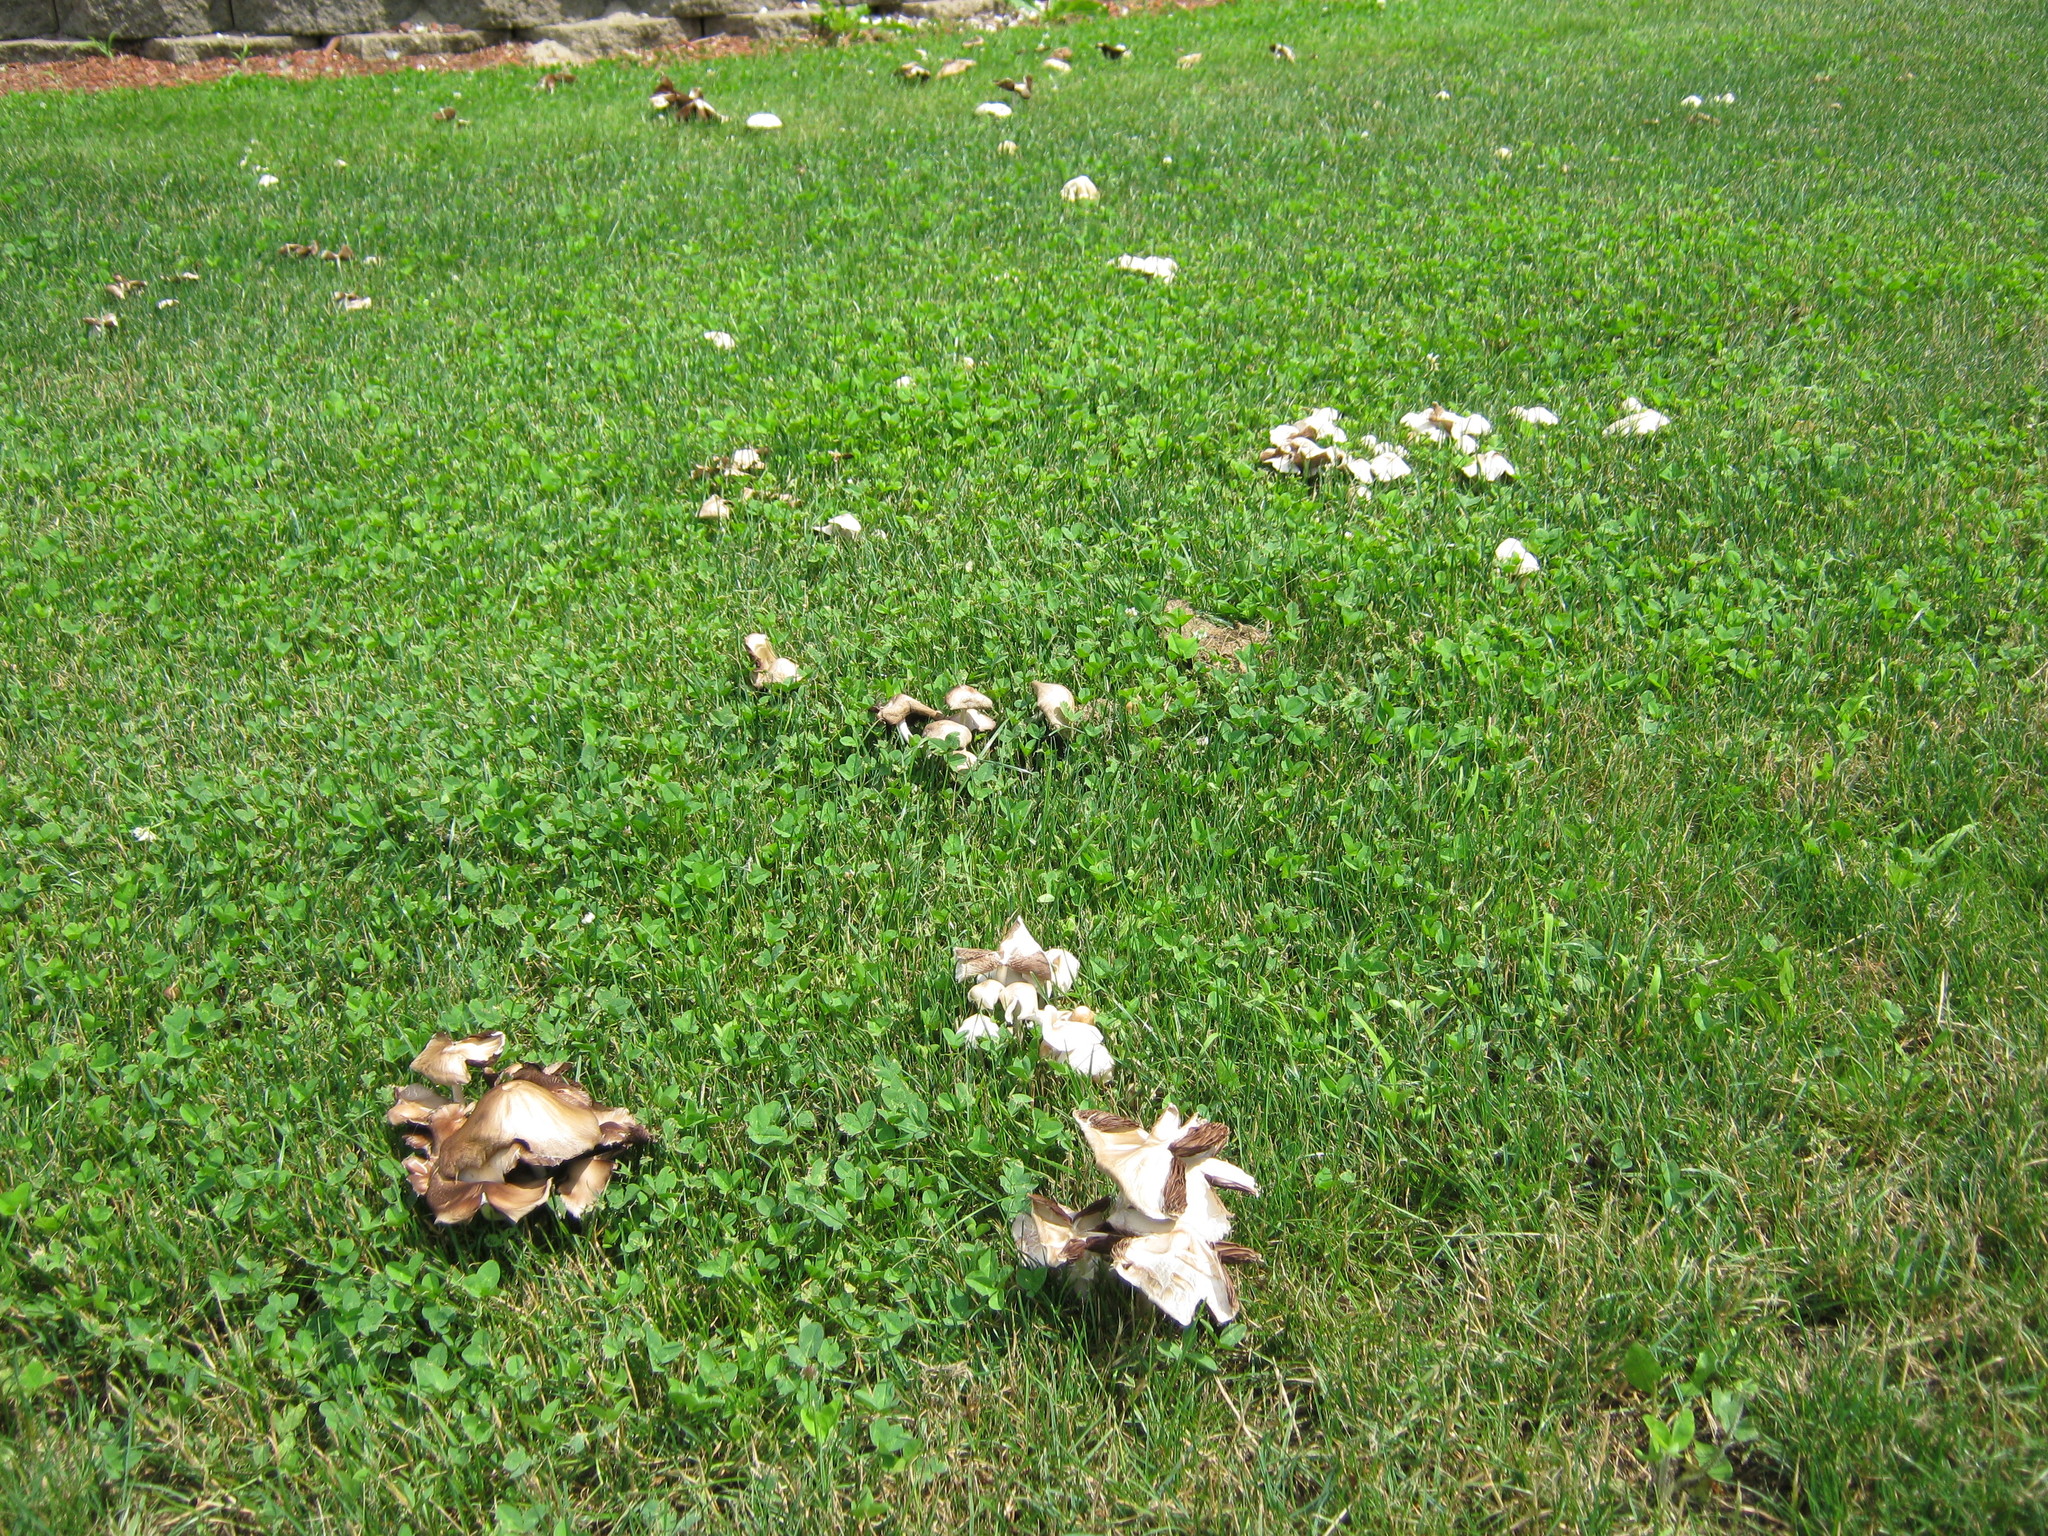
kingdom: Fungi
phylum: Basidiomycota
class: Agaricomycetes
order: Agaricales
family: Psathyrellaceae
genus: Candolleomyces
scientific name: Candolleomyces candolleanus
